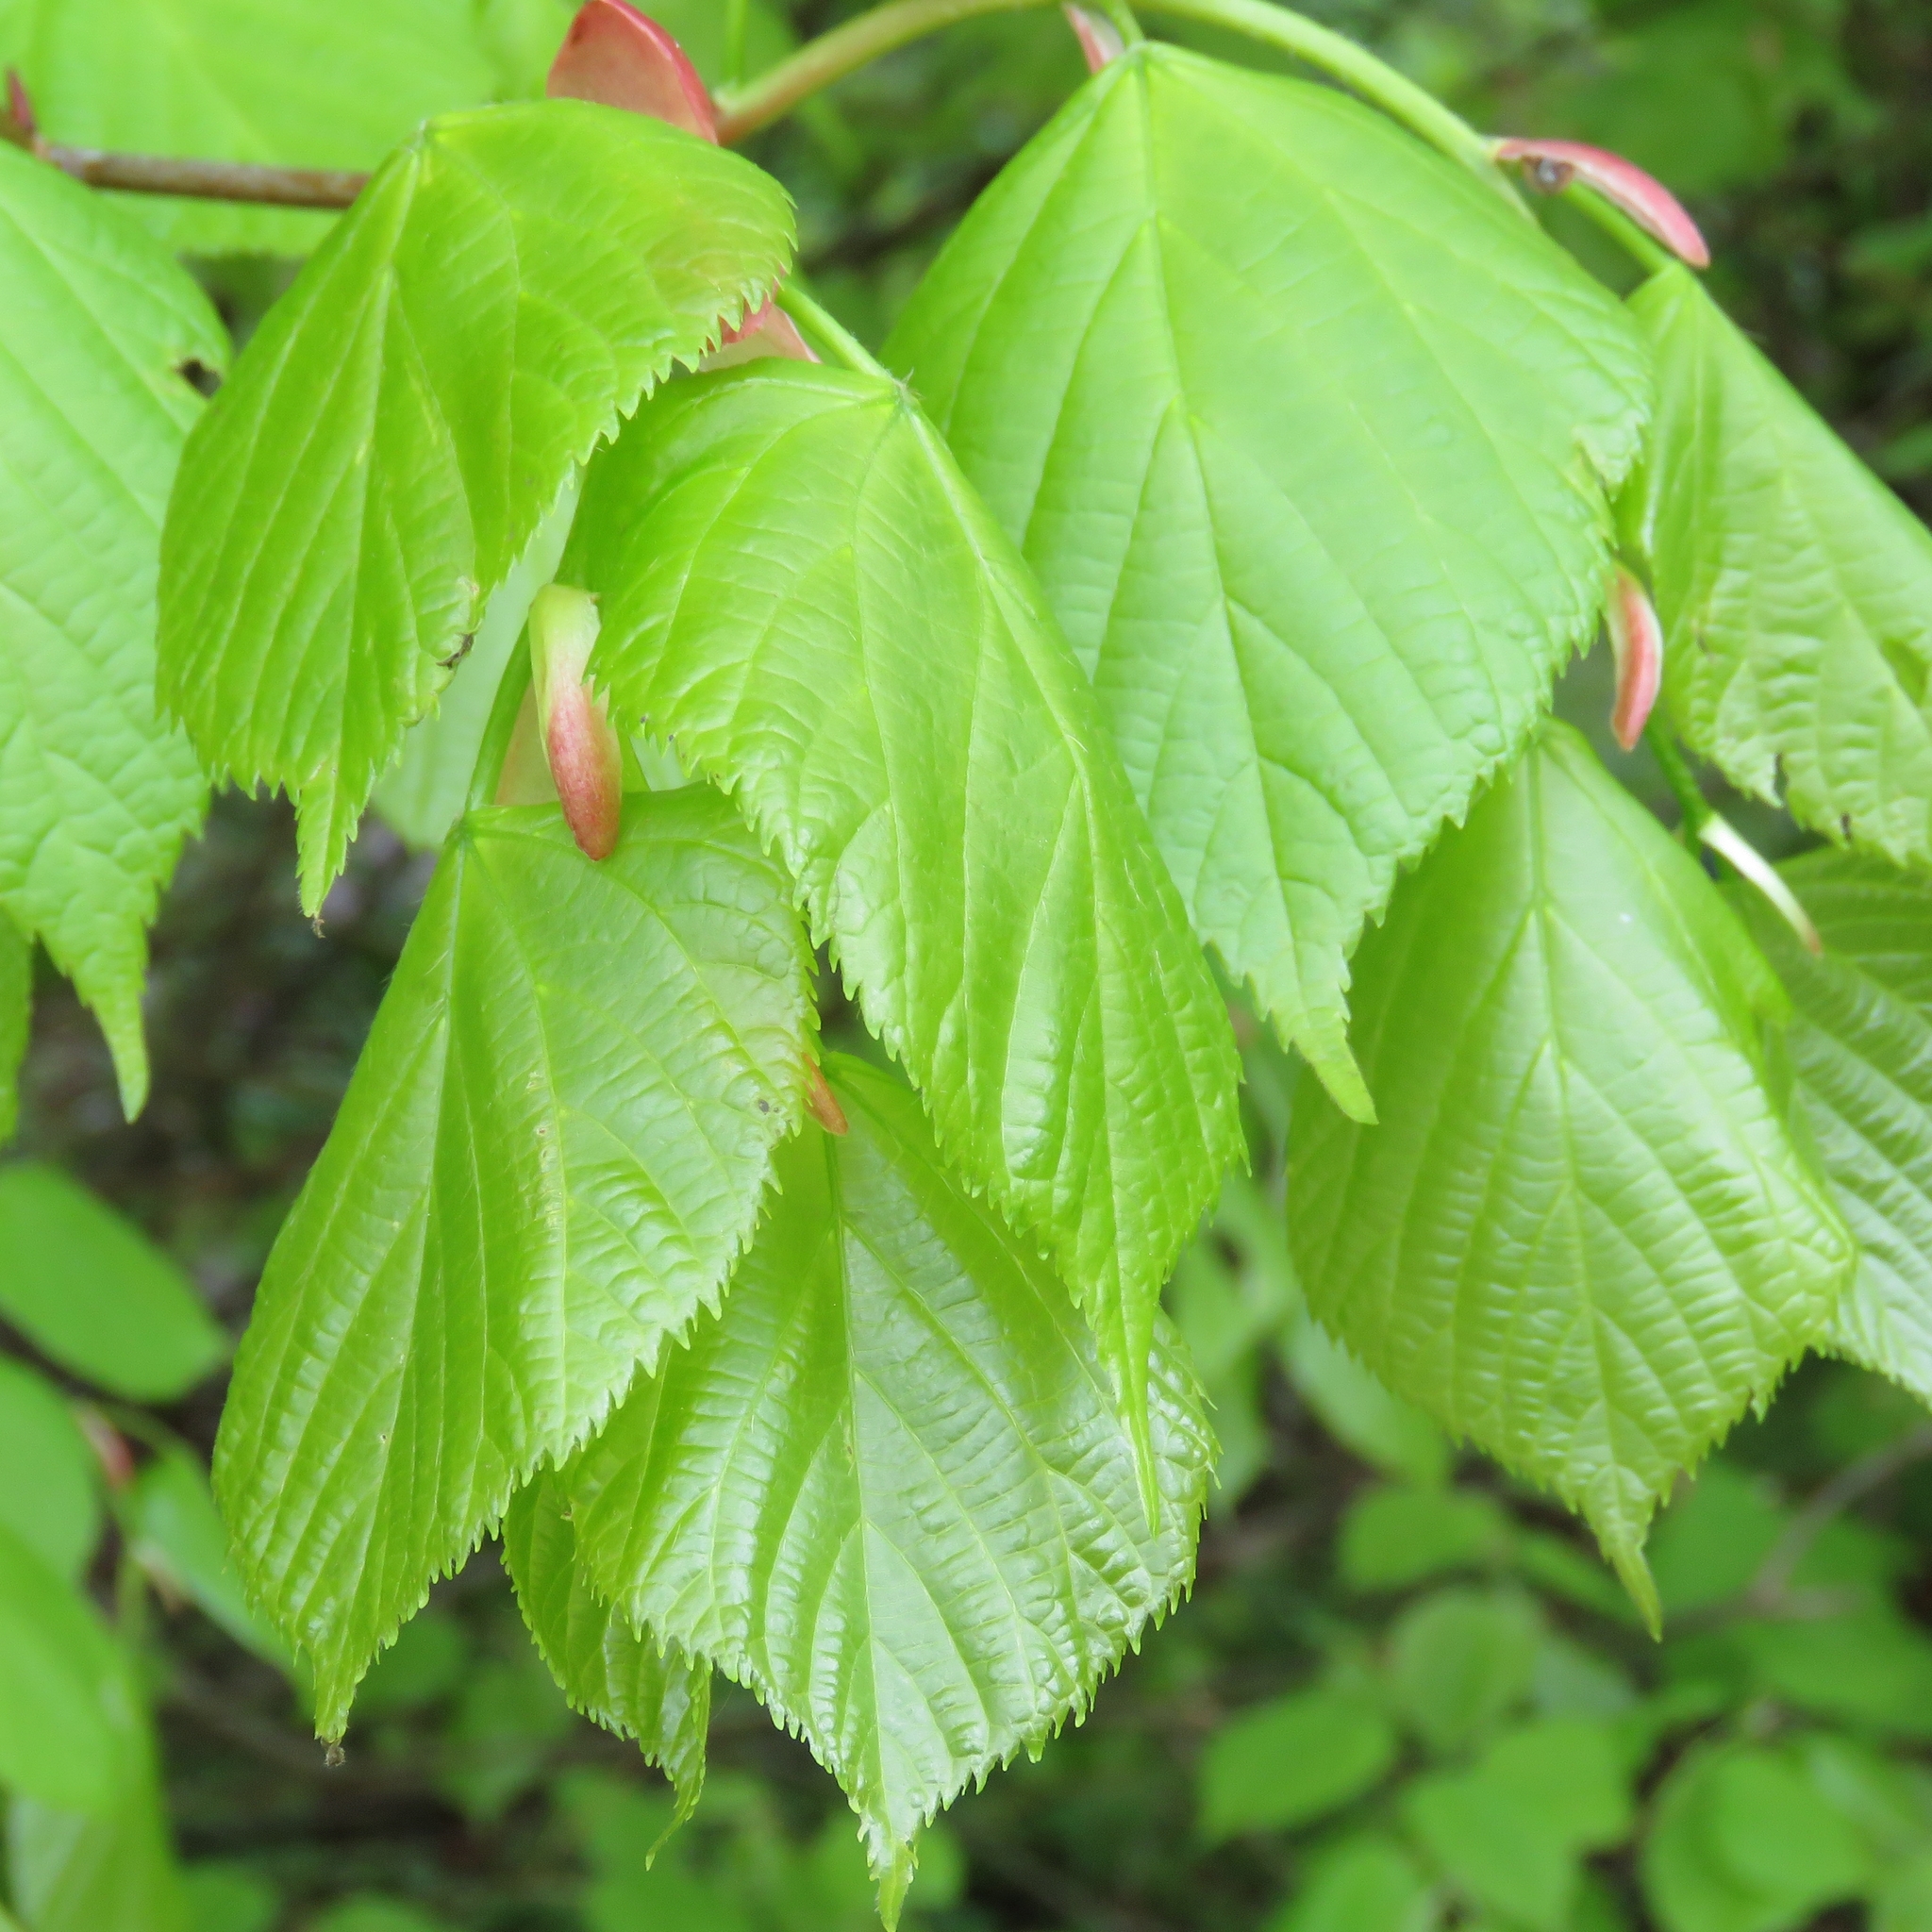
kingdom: Plantae
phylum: Tracheophyta
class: Magnoliopsida
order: Malvales
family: Malvaceae
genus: Tilia
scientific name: Tilia platyphyllos
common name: Large-leaved lime
